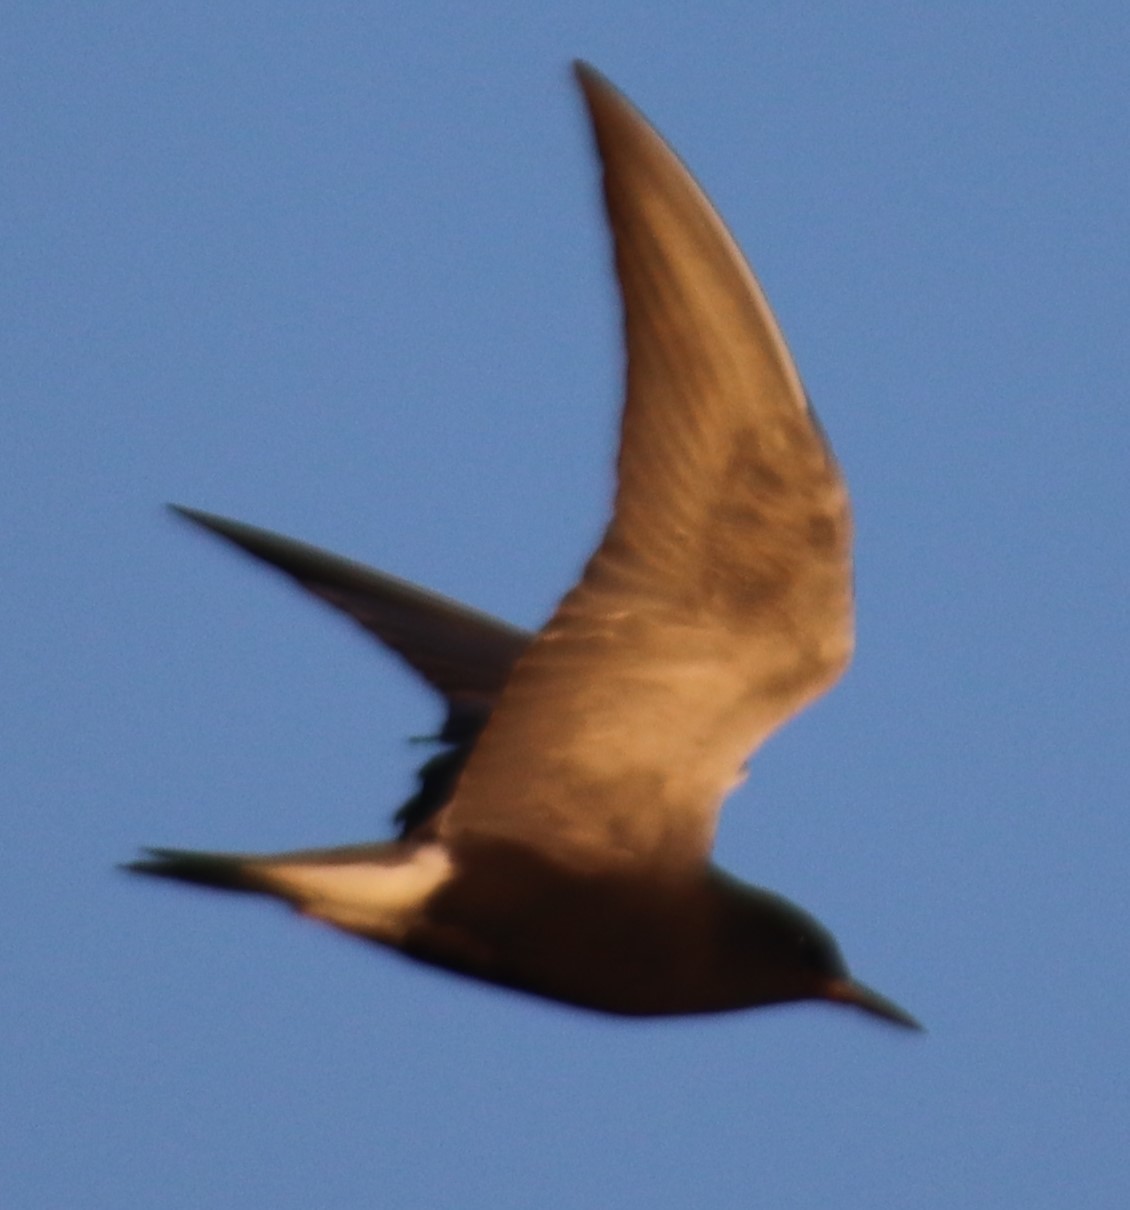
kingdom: Animalia
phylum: Chordata
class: Aves
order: Charadriiformes
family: Laridae
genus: Chlidonias
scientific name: Chlidonias niger
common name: Black tern
